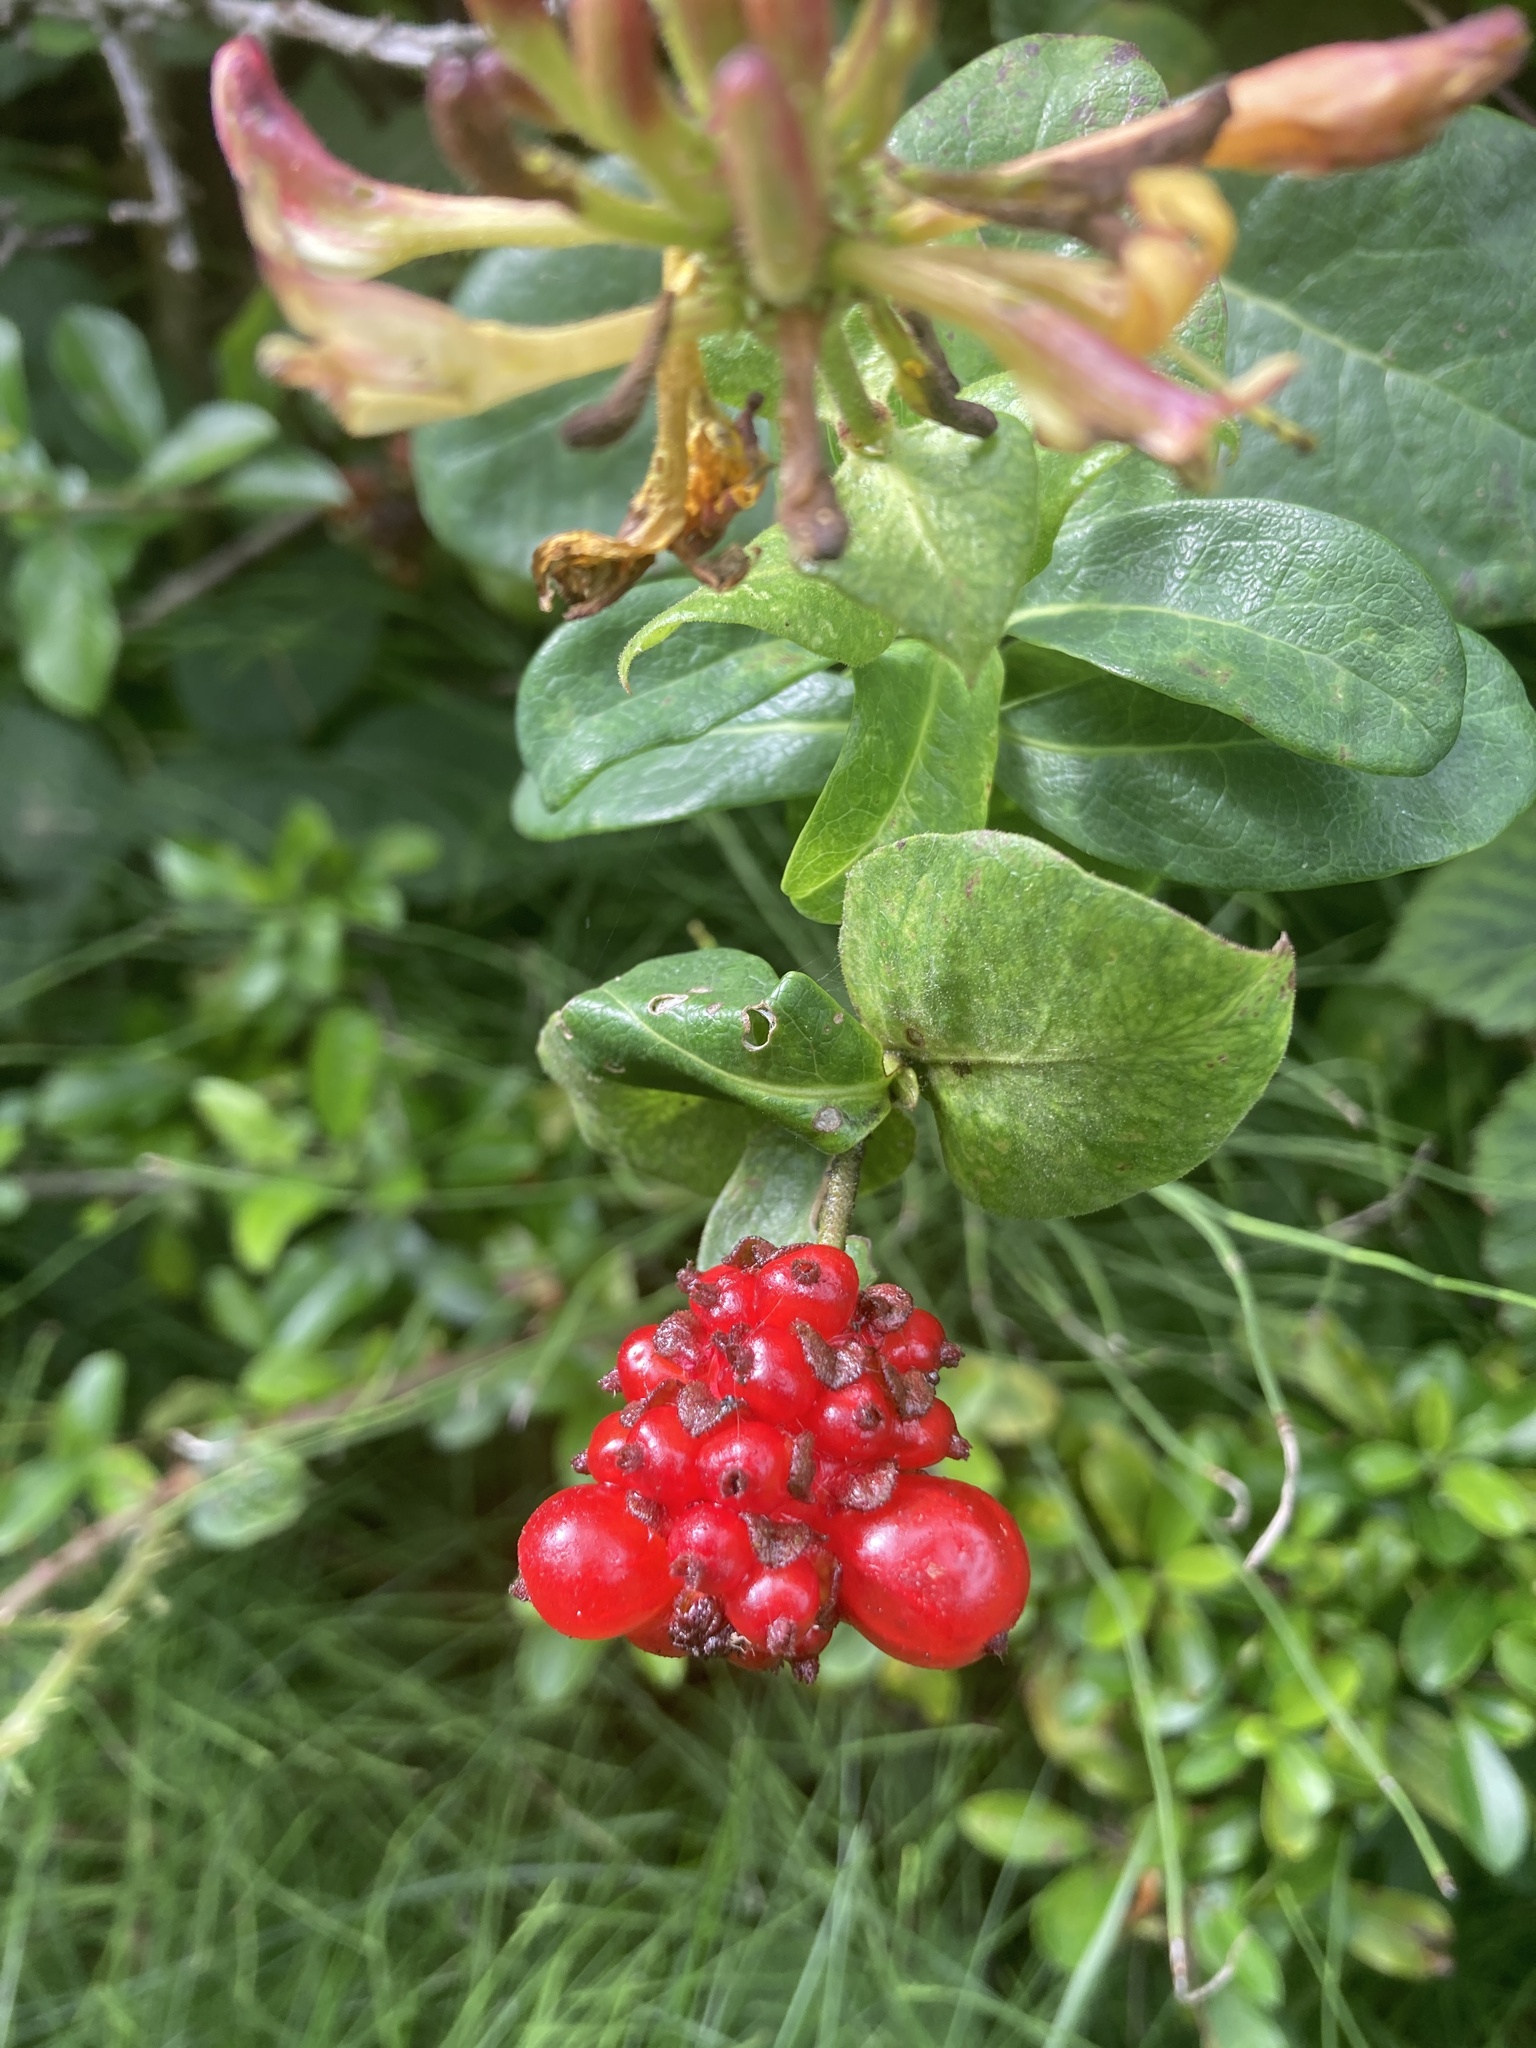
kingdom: Plantae
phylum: Tracheophyta
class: Magnoliopsida
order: Dipsacales
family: Caprifoliaceae
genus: Lonicera
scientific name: Lonicera periclymenum
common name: European honeysuckle
